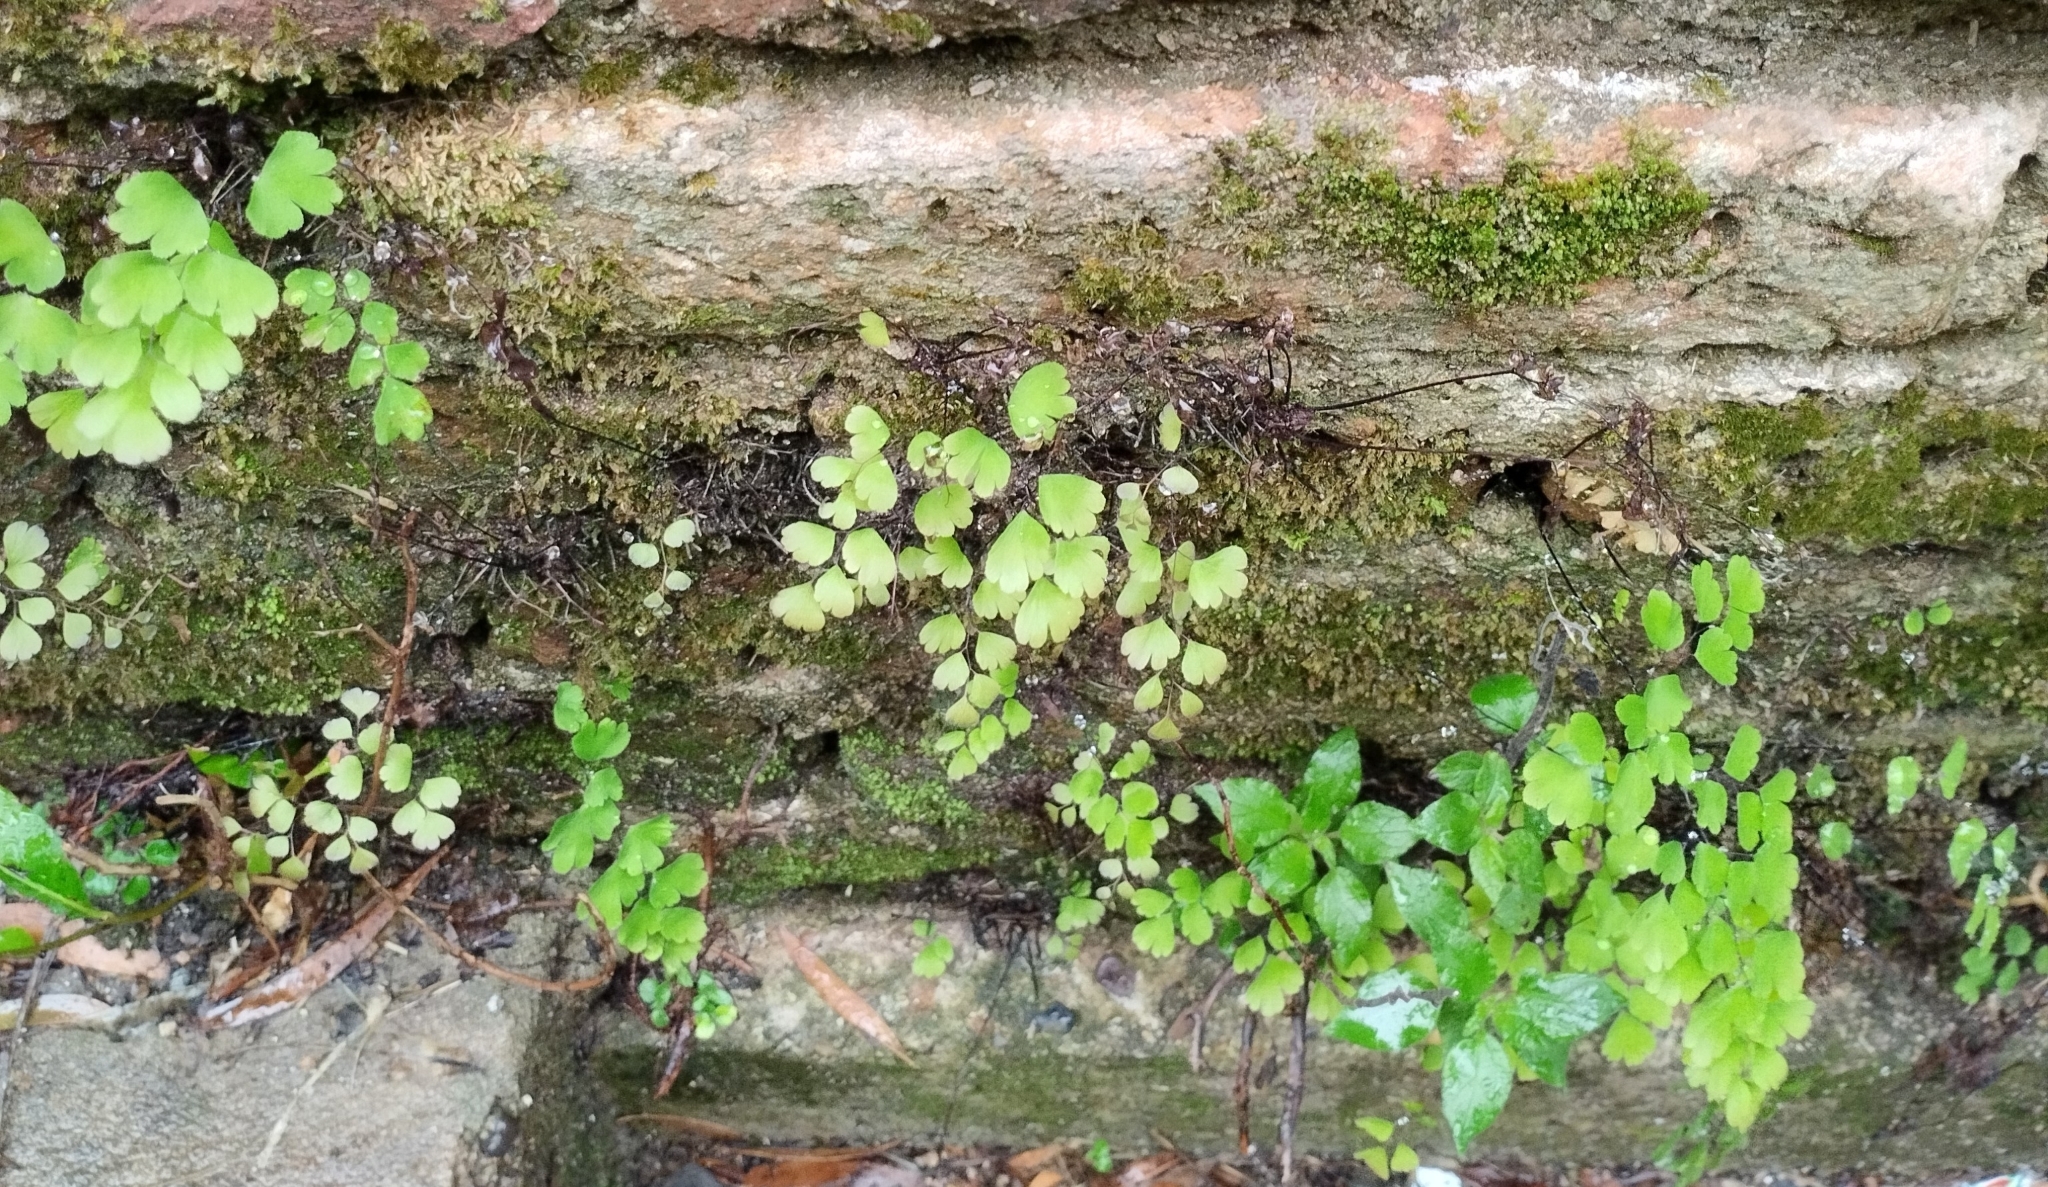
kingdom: Plantae
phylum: Tracheophyta
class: Polypodiopsida
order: Polypodiales
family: Pteridaceae
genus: Adiantum
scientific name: Adiantum raddianum
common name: Delta maidenhair fern
